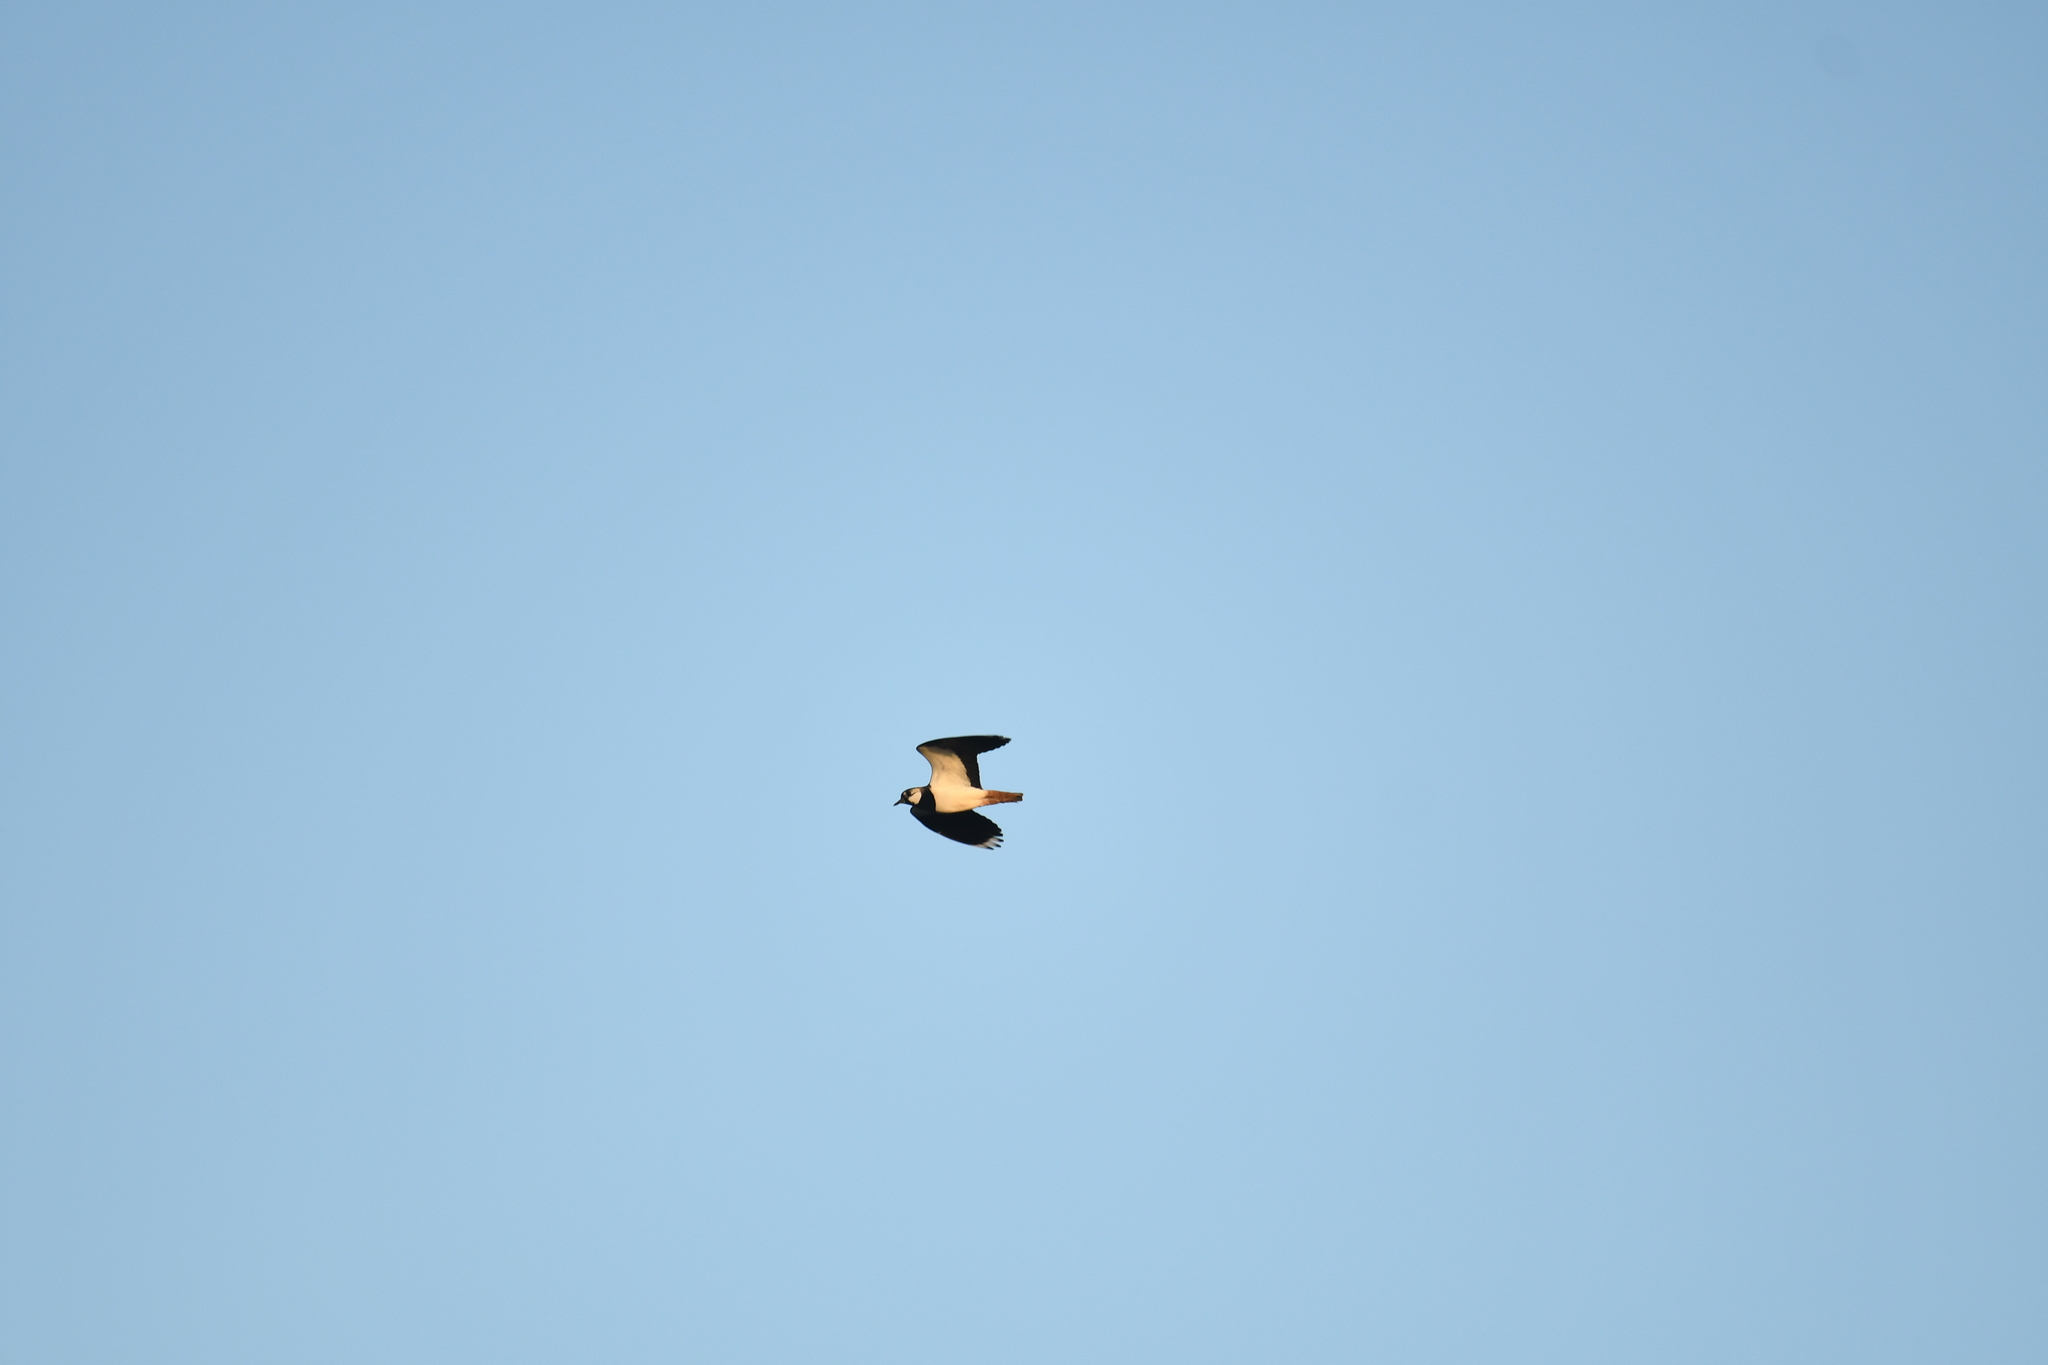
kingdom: Animalia
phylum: Chordata
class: Aves
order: Charadriiformes
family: Charadriidae
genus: Vanellus
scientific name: Vanellus vanellus
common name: Northern lapwing
